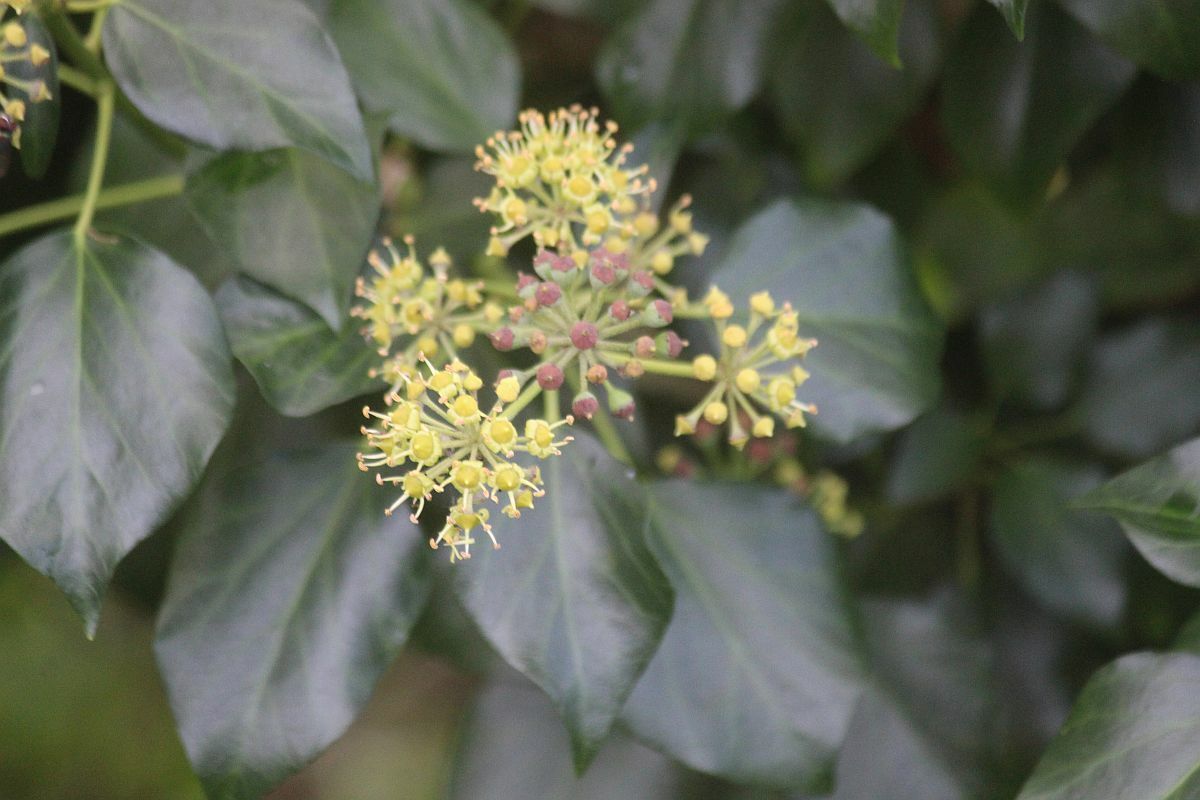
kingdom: Plantae
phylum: Tracheophyta
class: Magnoliopsida
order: Apiales
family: Araliaceae
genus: Hedera
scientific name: Hedera helix
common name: Ivy
